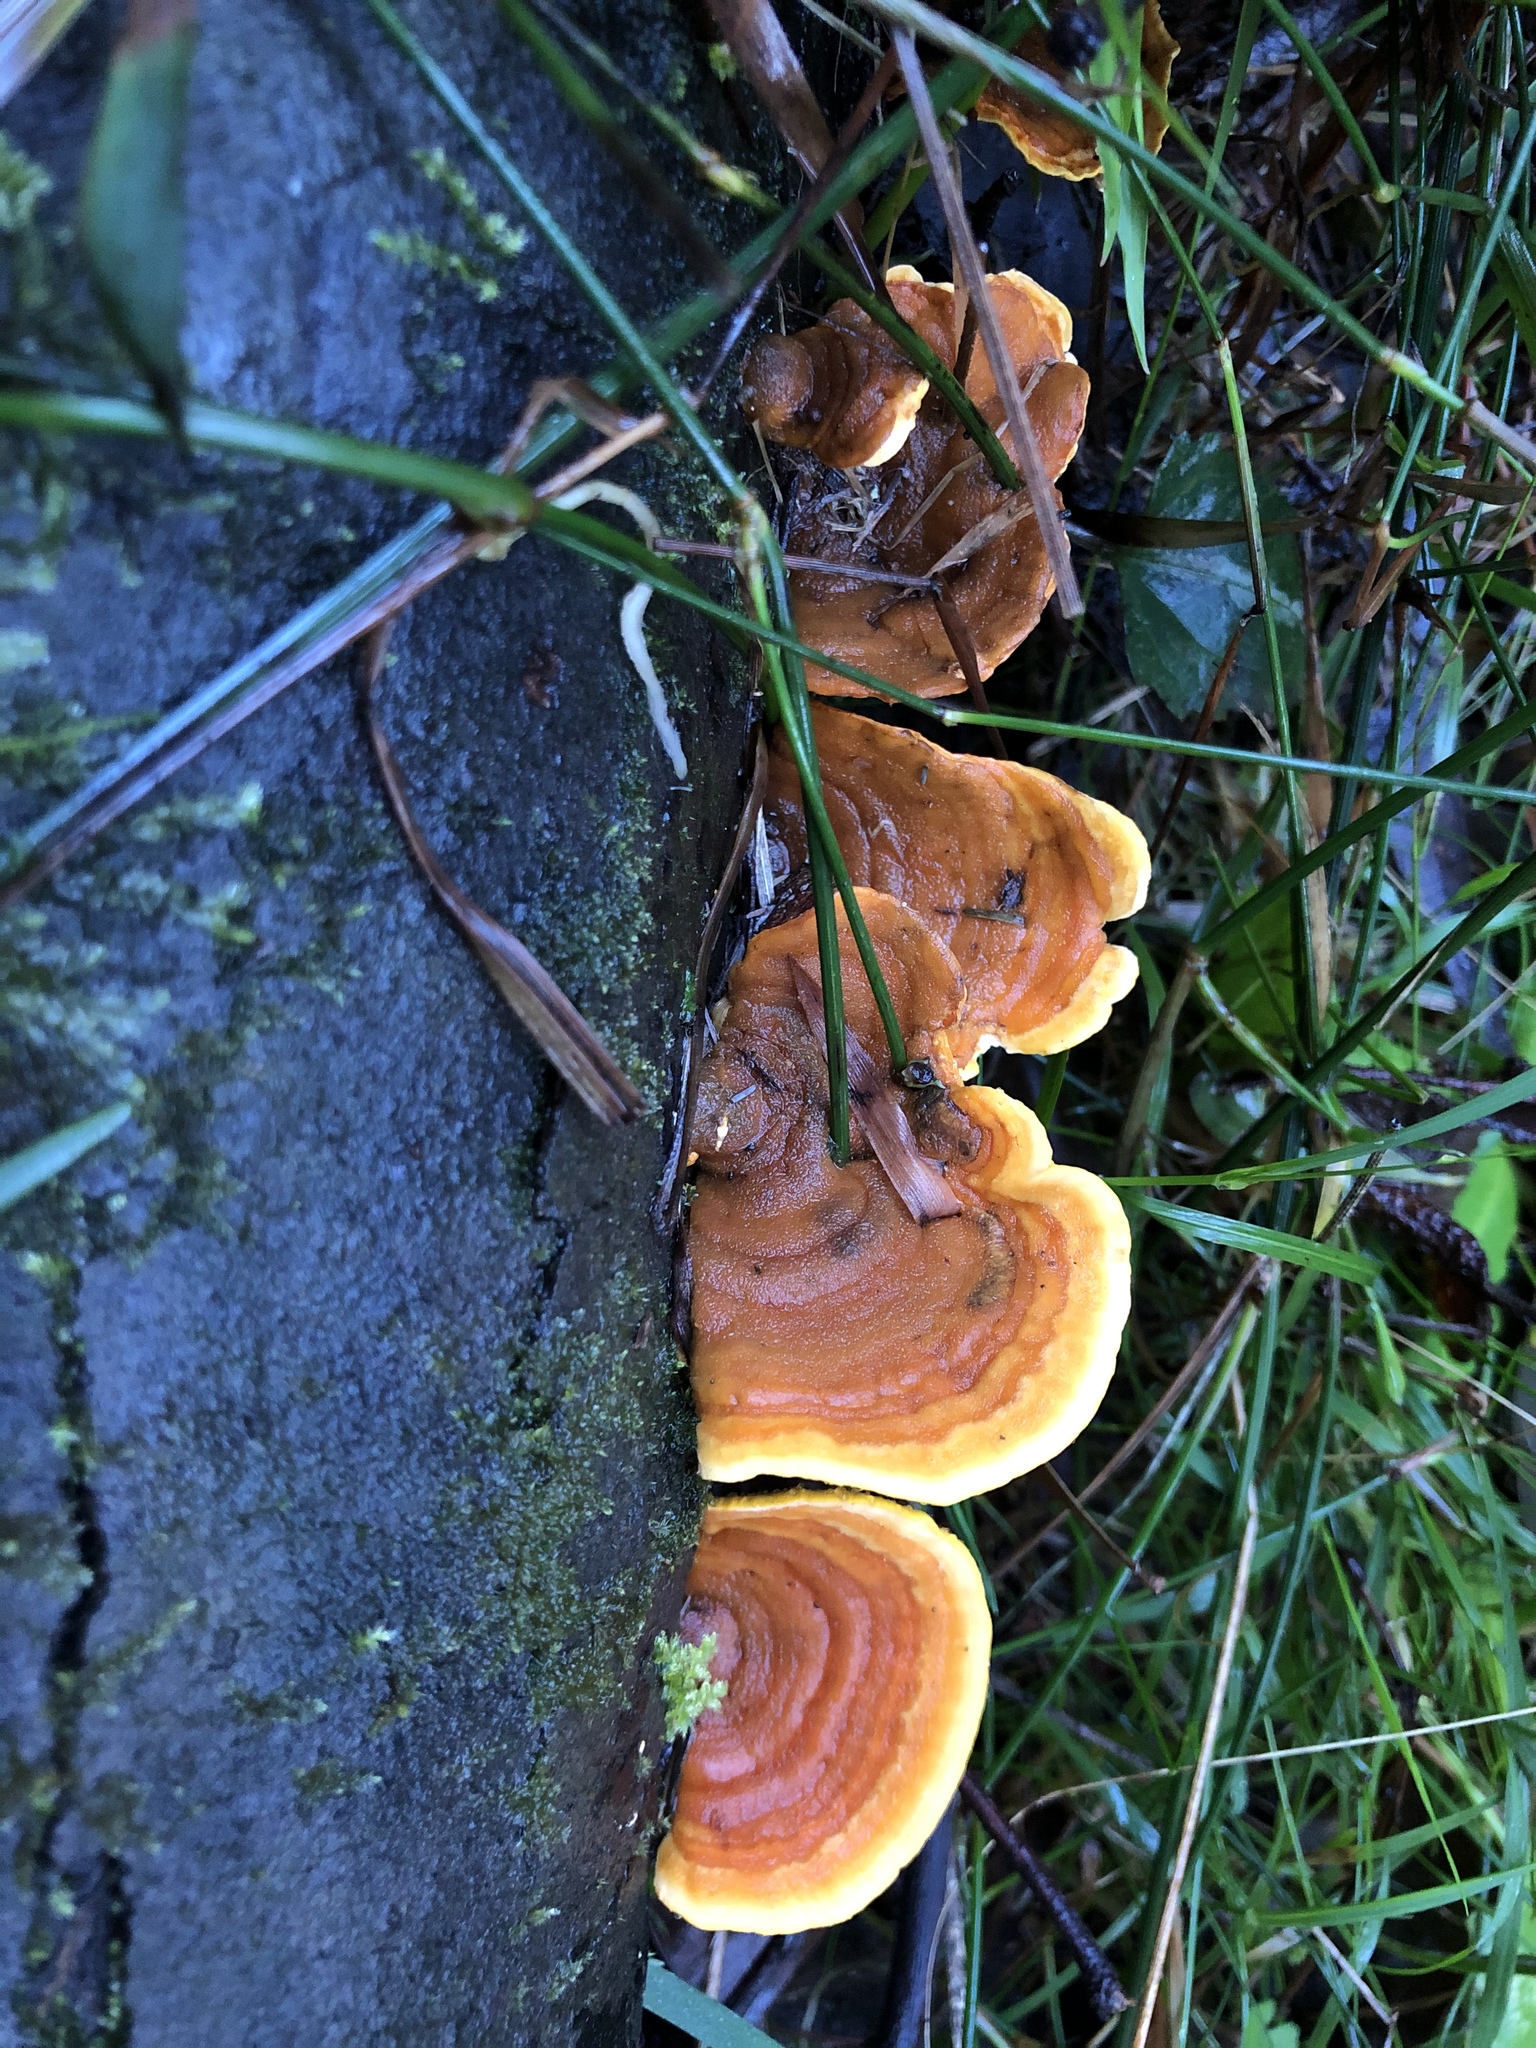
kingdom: Fungi
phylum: Basidiomycota
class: Agaricomycetes
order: Russulales
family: Stereaceae
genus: Stereum
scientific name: Stereum versicolor
